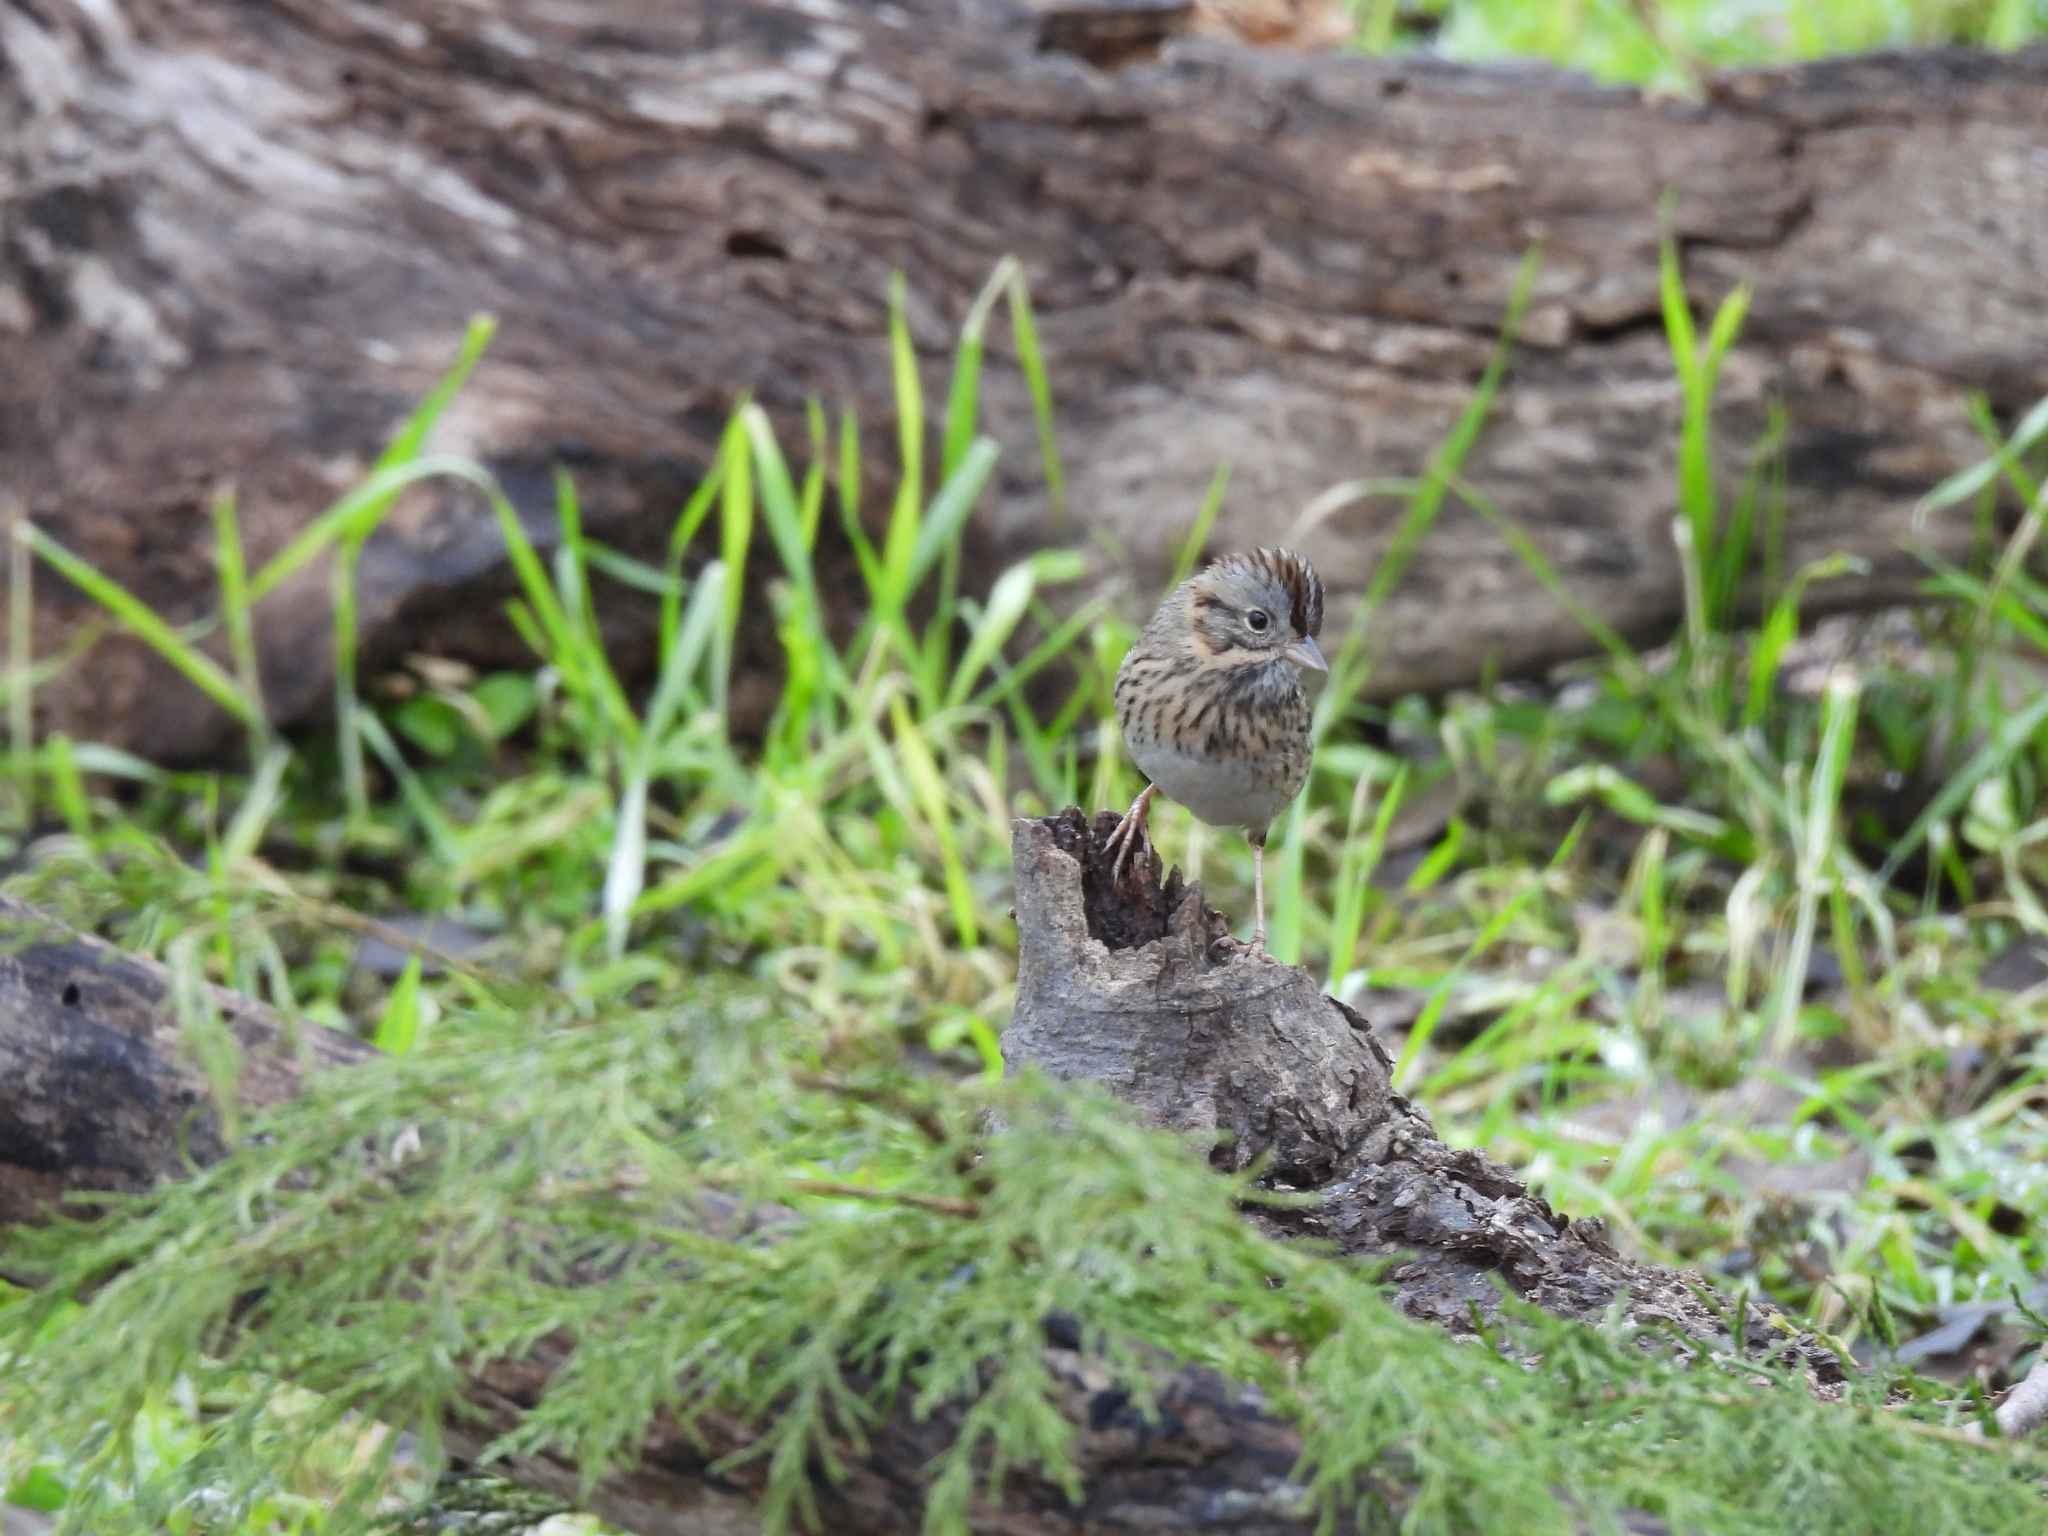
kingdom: Animalia
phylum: Chordata
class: Aves
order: Passeriformes
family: Passerellidae
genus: Melospiza
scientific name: Melospiza lincolnii
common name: Lincoln's sparrow
